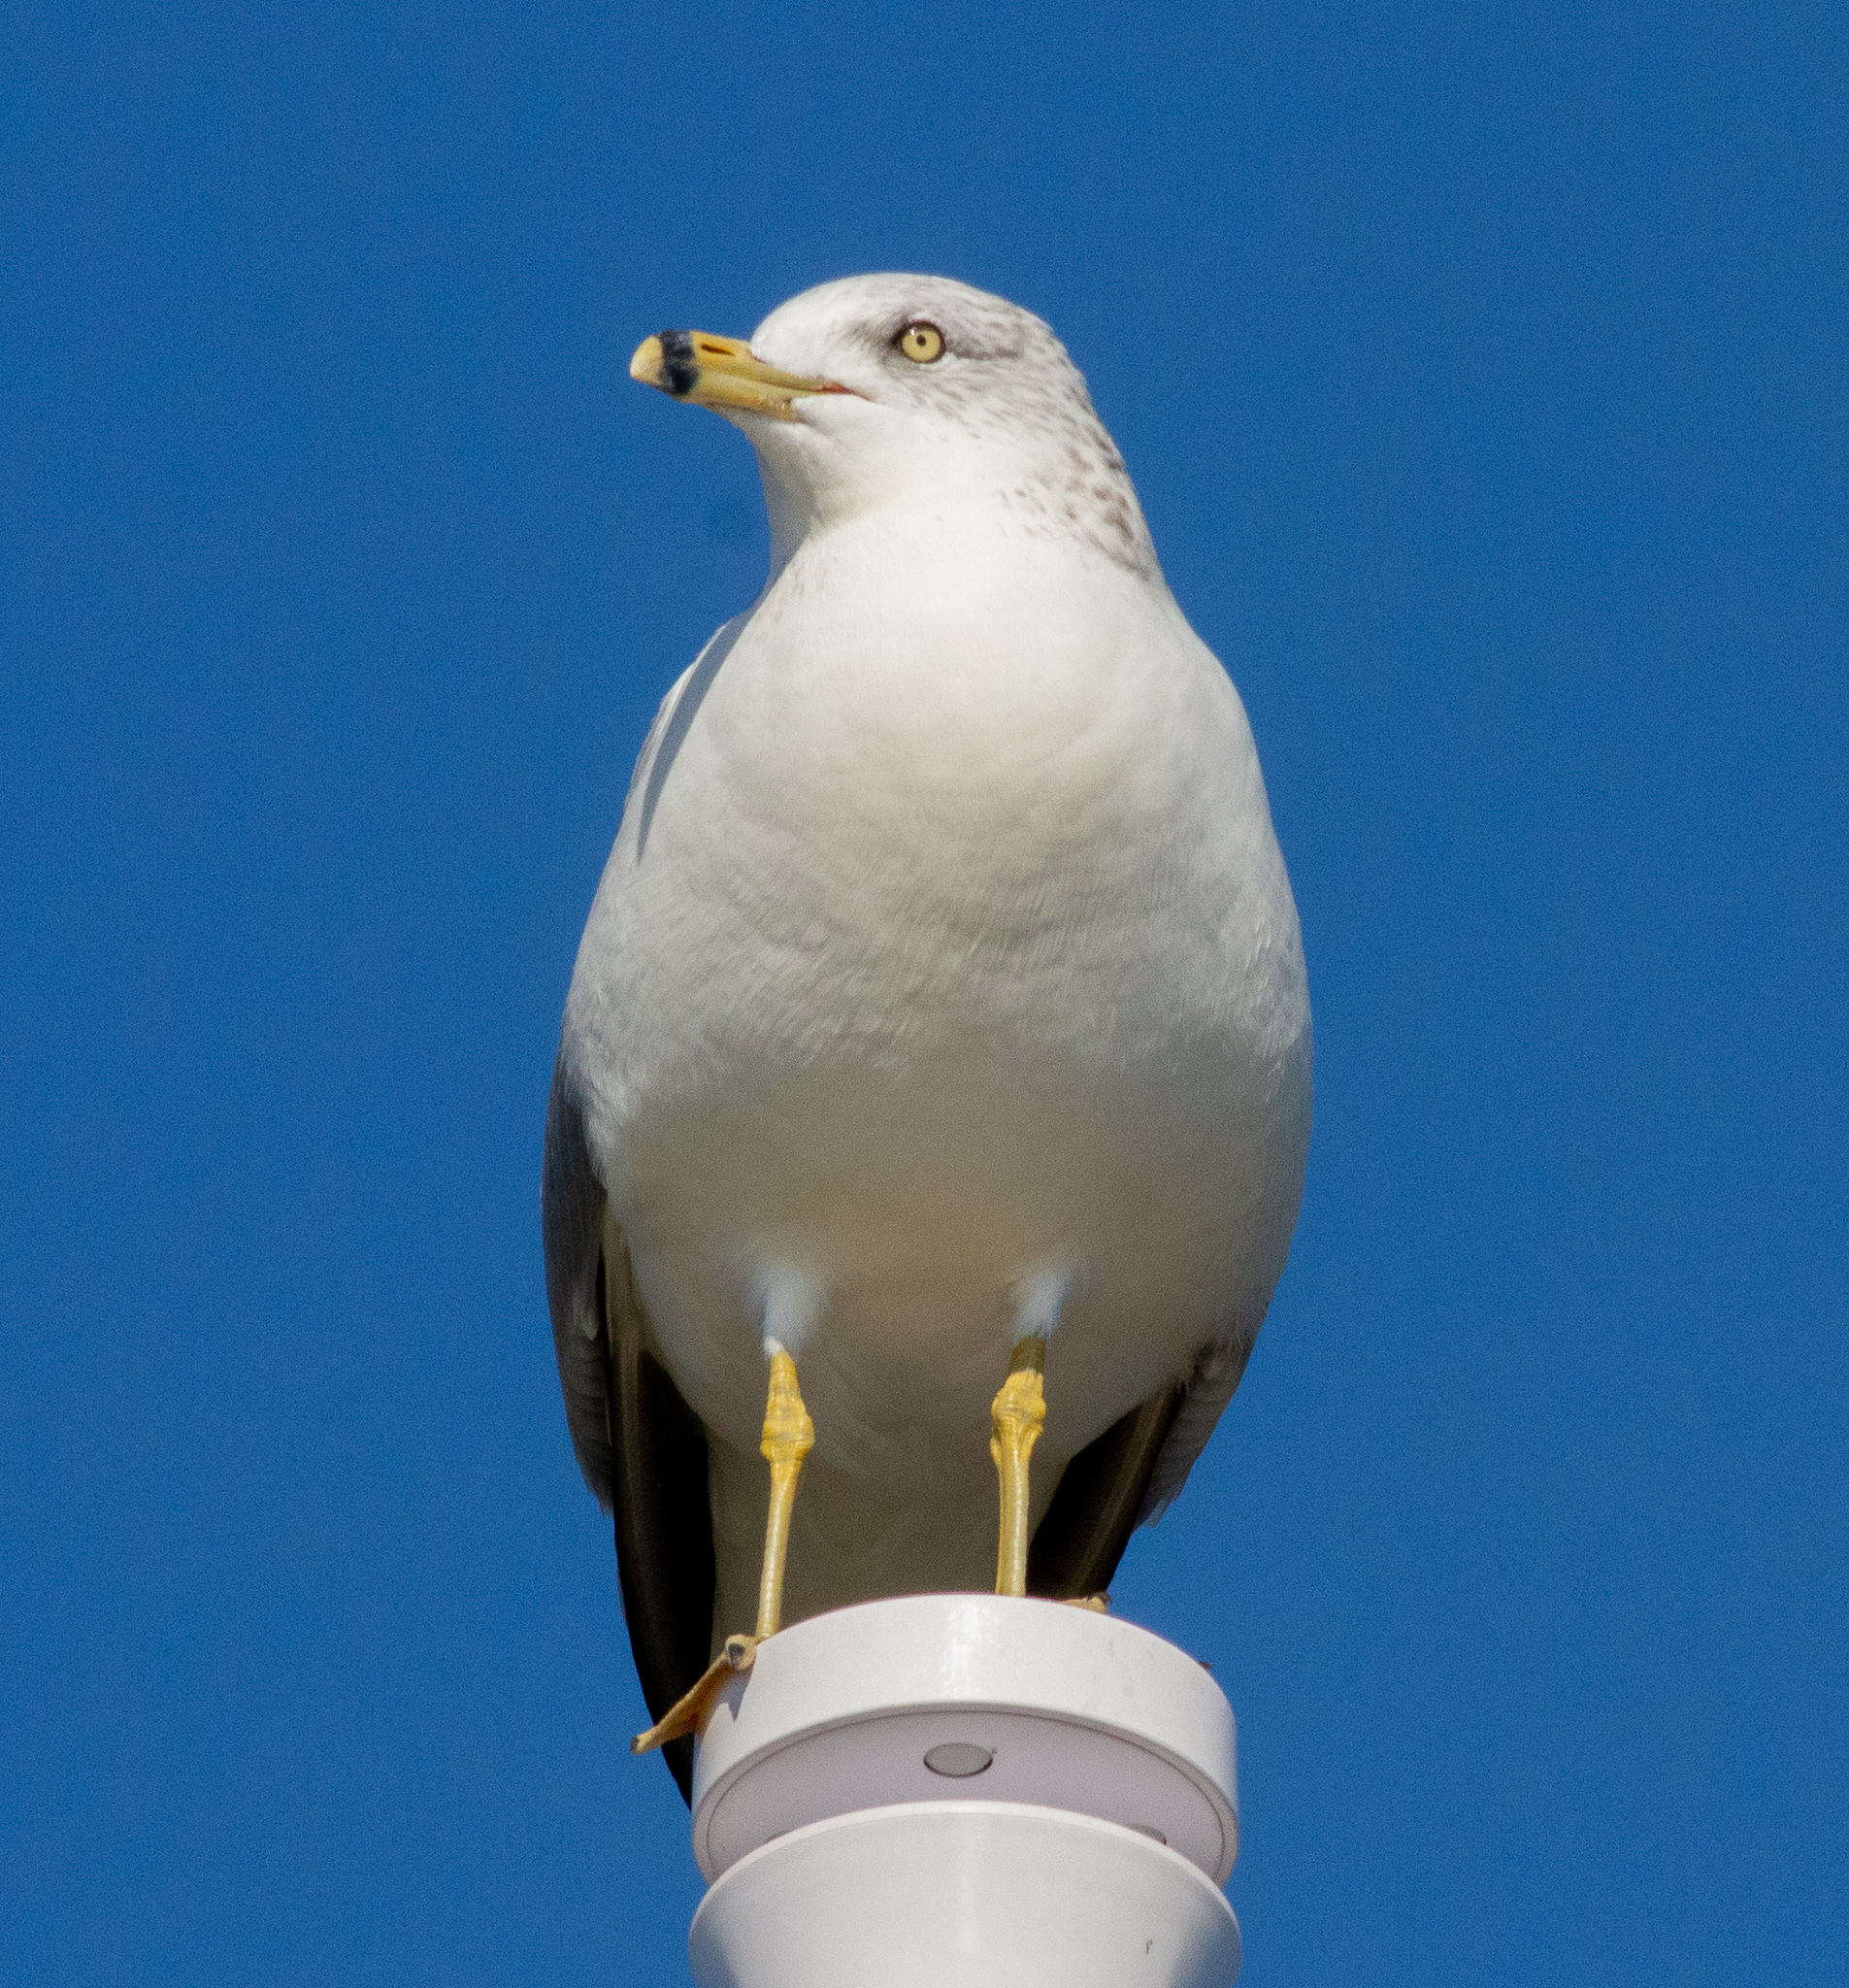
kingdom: Animalia
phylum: Chordata
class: Aves
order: Charadriiformes
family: Laridae
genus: Larus
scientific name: Larus delawarensis
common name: Ring-billed gull
